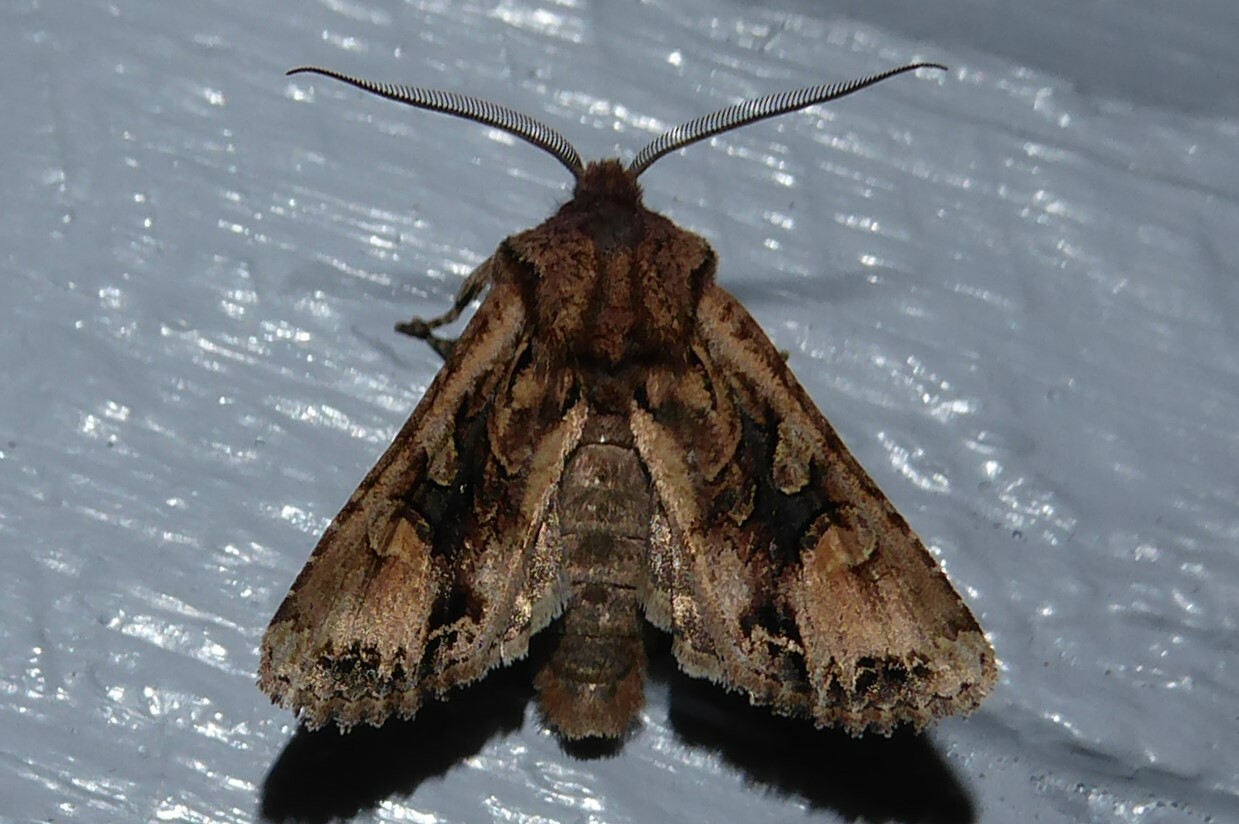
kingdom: Animalia
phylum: Arthropoda
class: Insecta
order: Lepidoptera
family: Noctuidae
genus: Ichneutica
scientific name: Ichneutica
